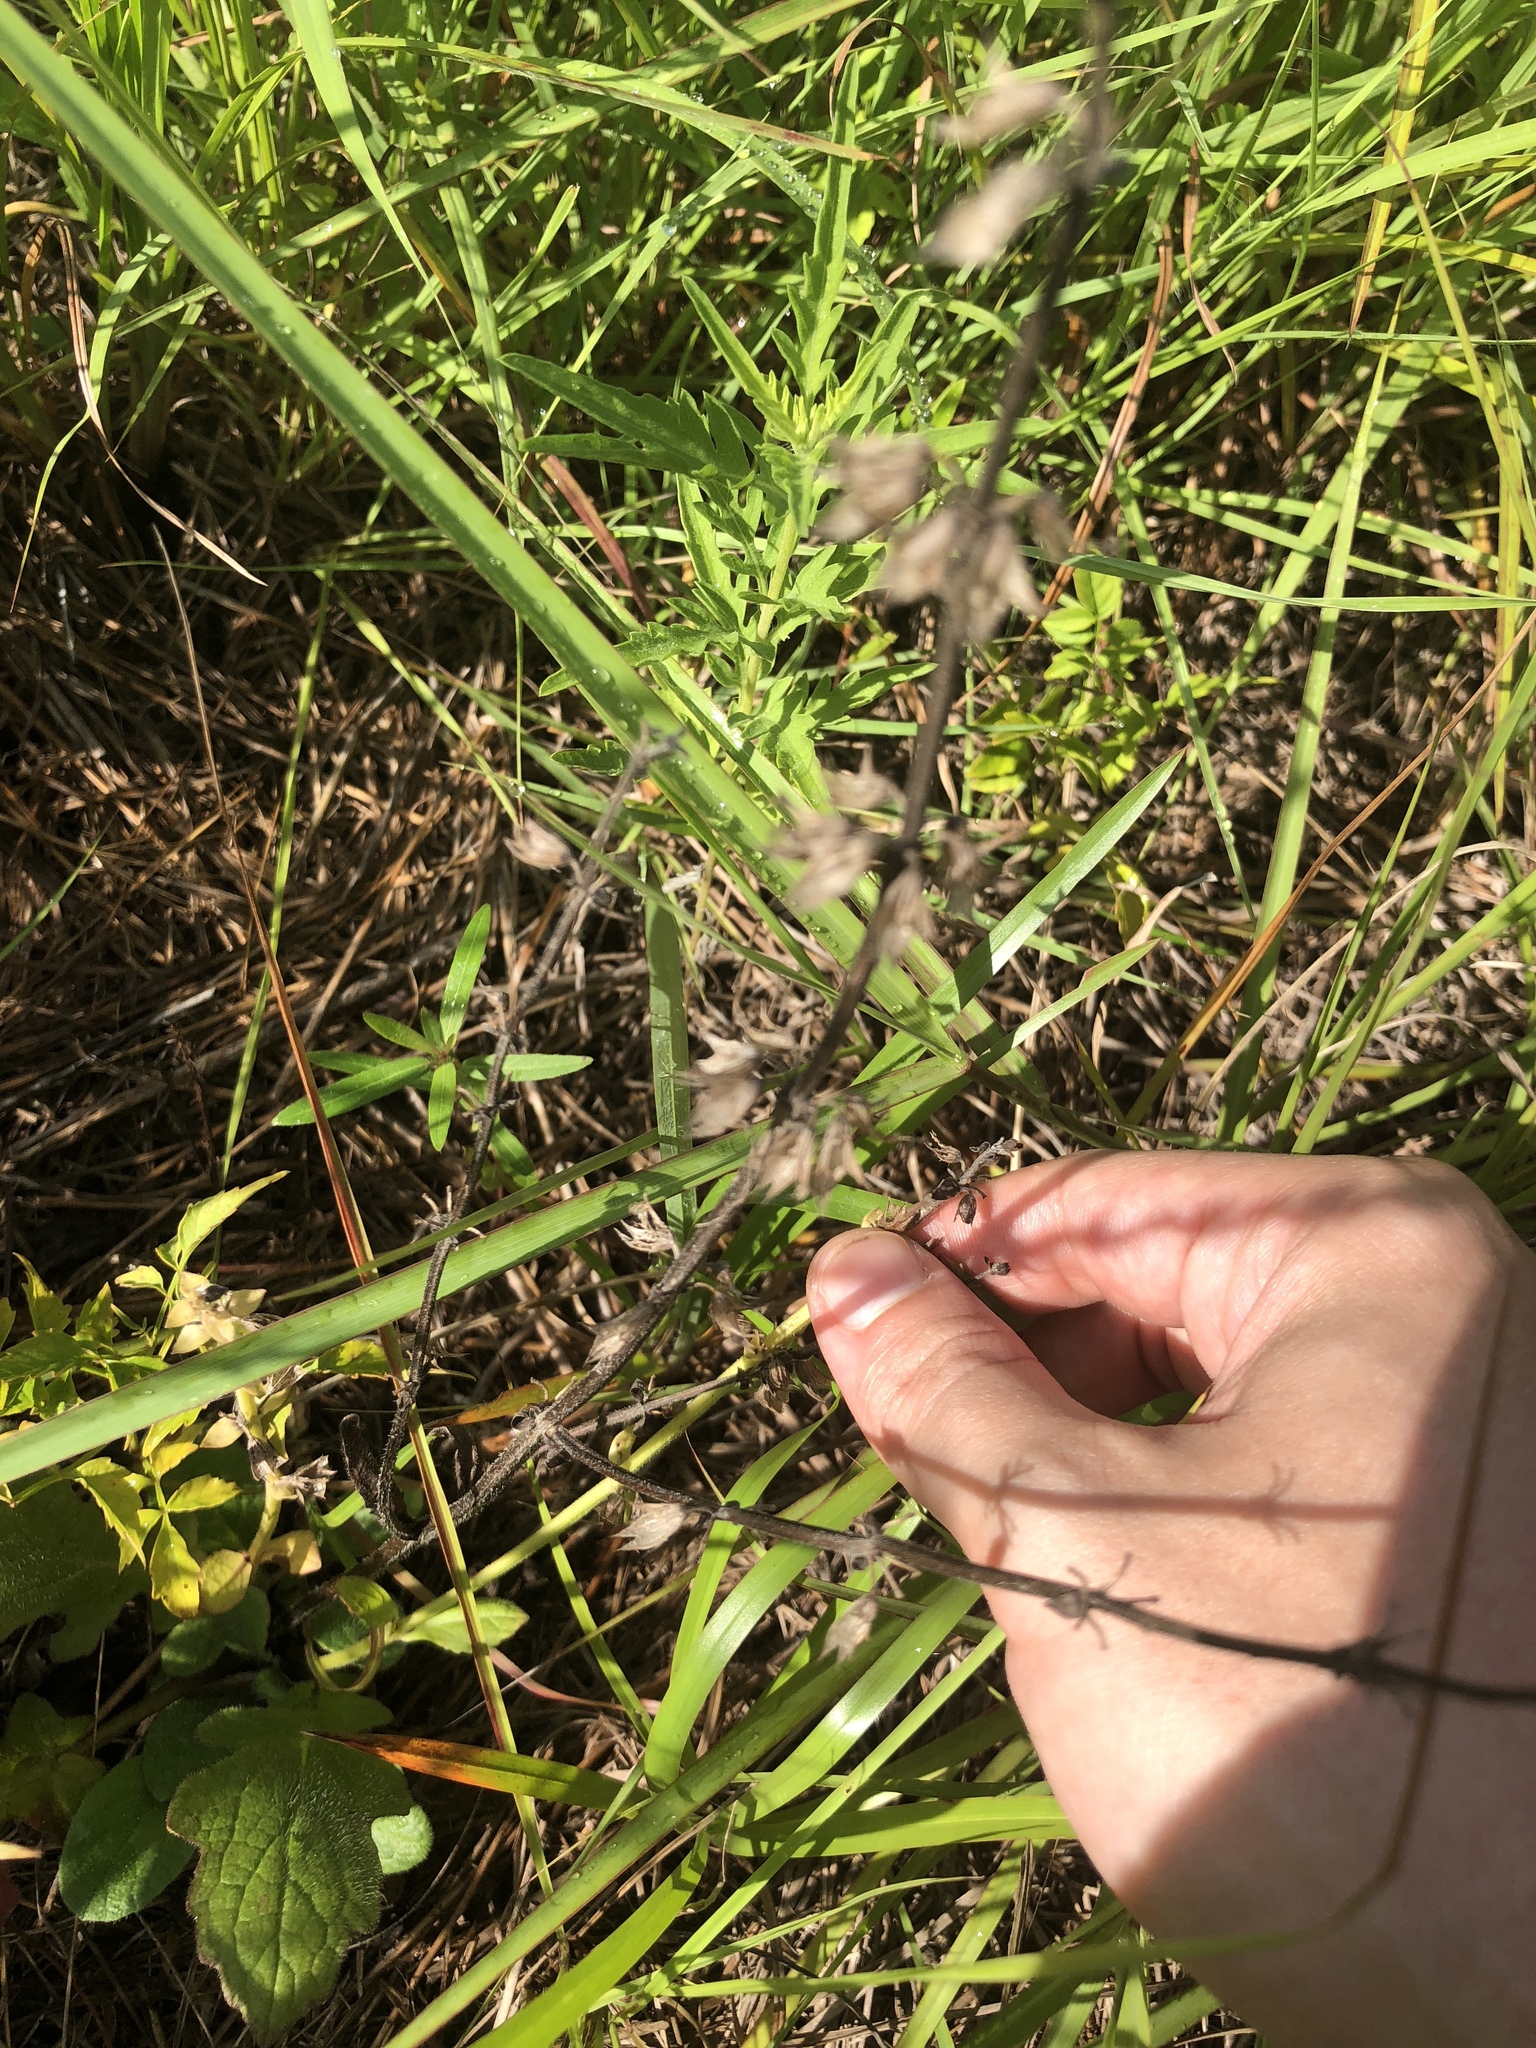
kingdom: Plantae
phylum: Tracheophyta
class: Magnoliopsida
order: Lamiales
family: Lamiaceae
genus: Salvia
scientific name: Salvia lyrata
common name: Cancerweed
